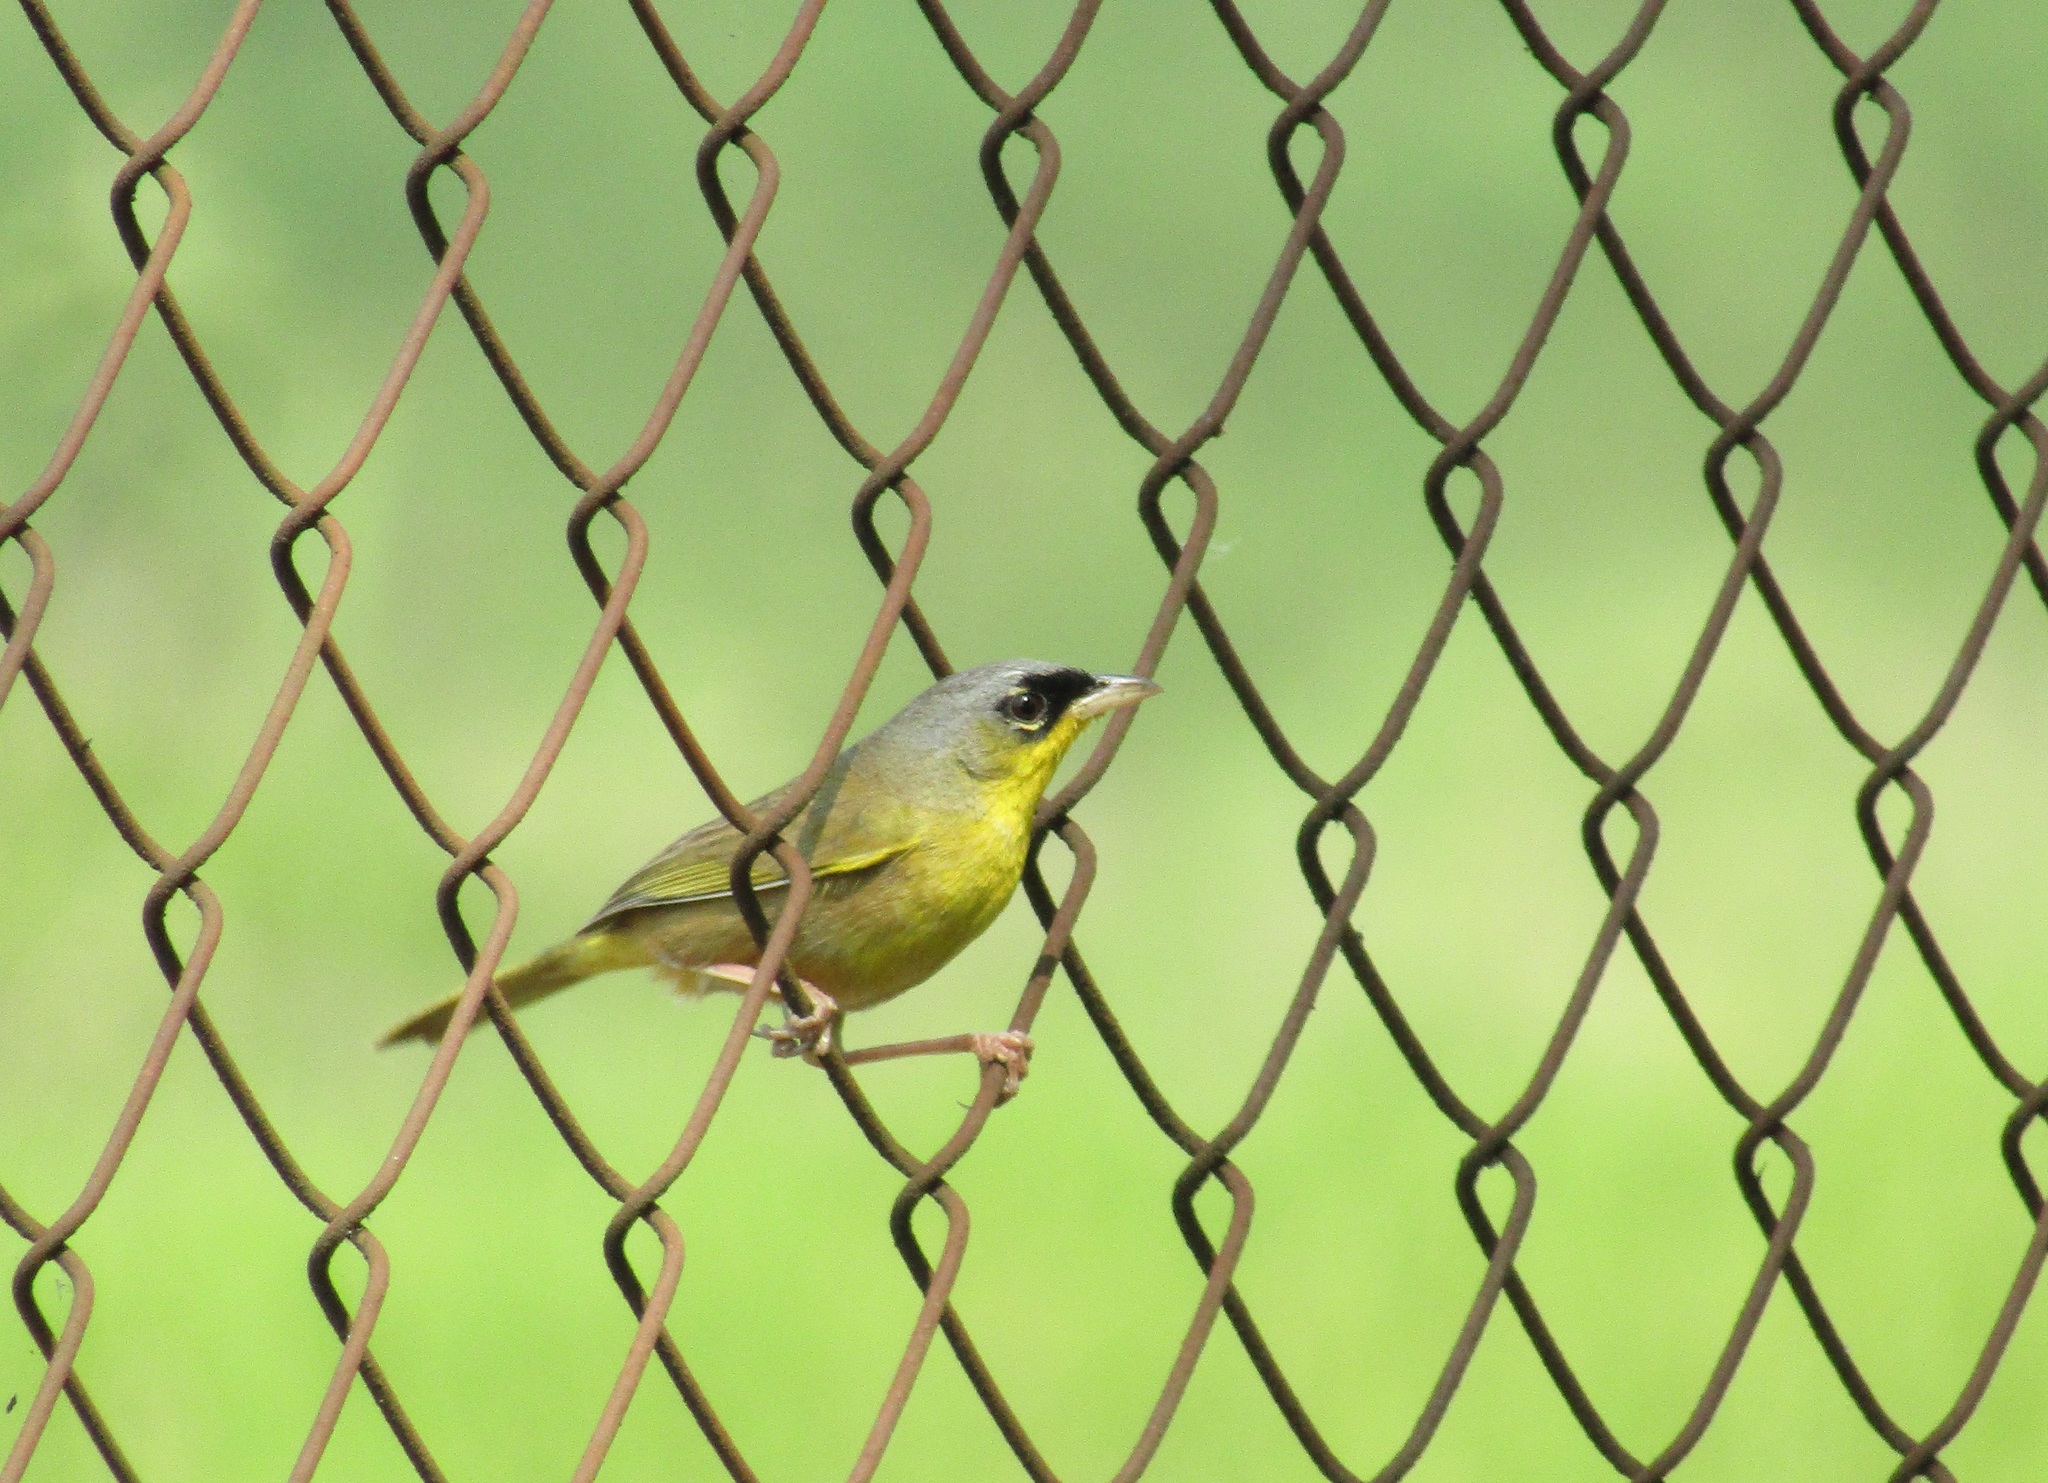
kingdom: Animalia
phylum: Chordata
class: Aves
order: Passeriformes
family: Parulidae
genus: Geothlypis
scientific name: Geothlypis poliocephala
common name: Gray-crowned yellowthroat
